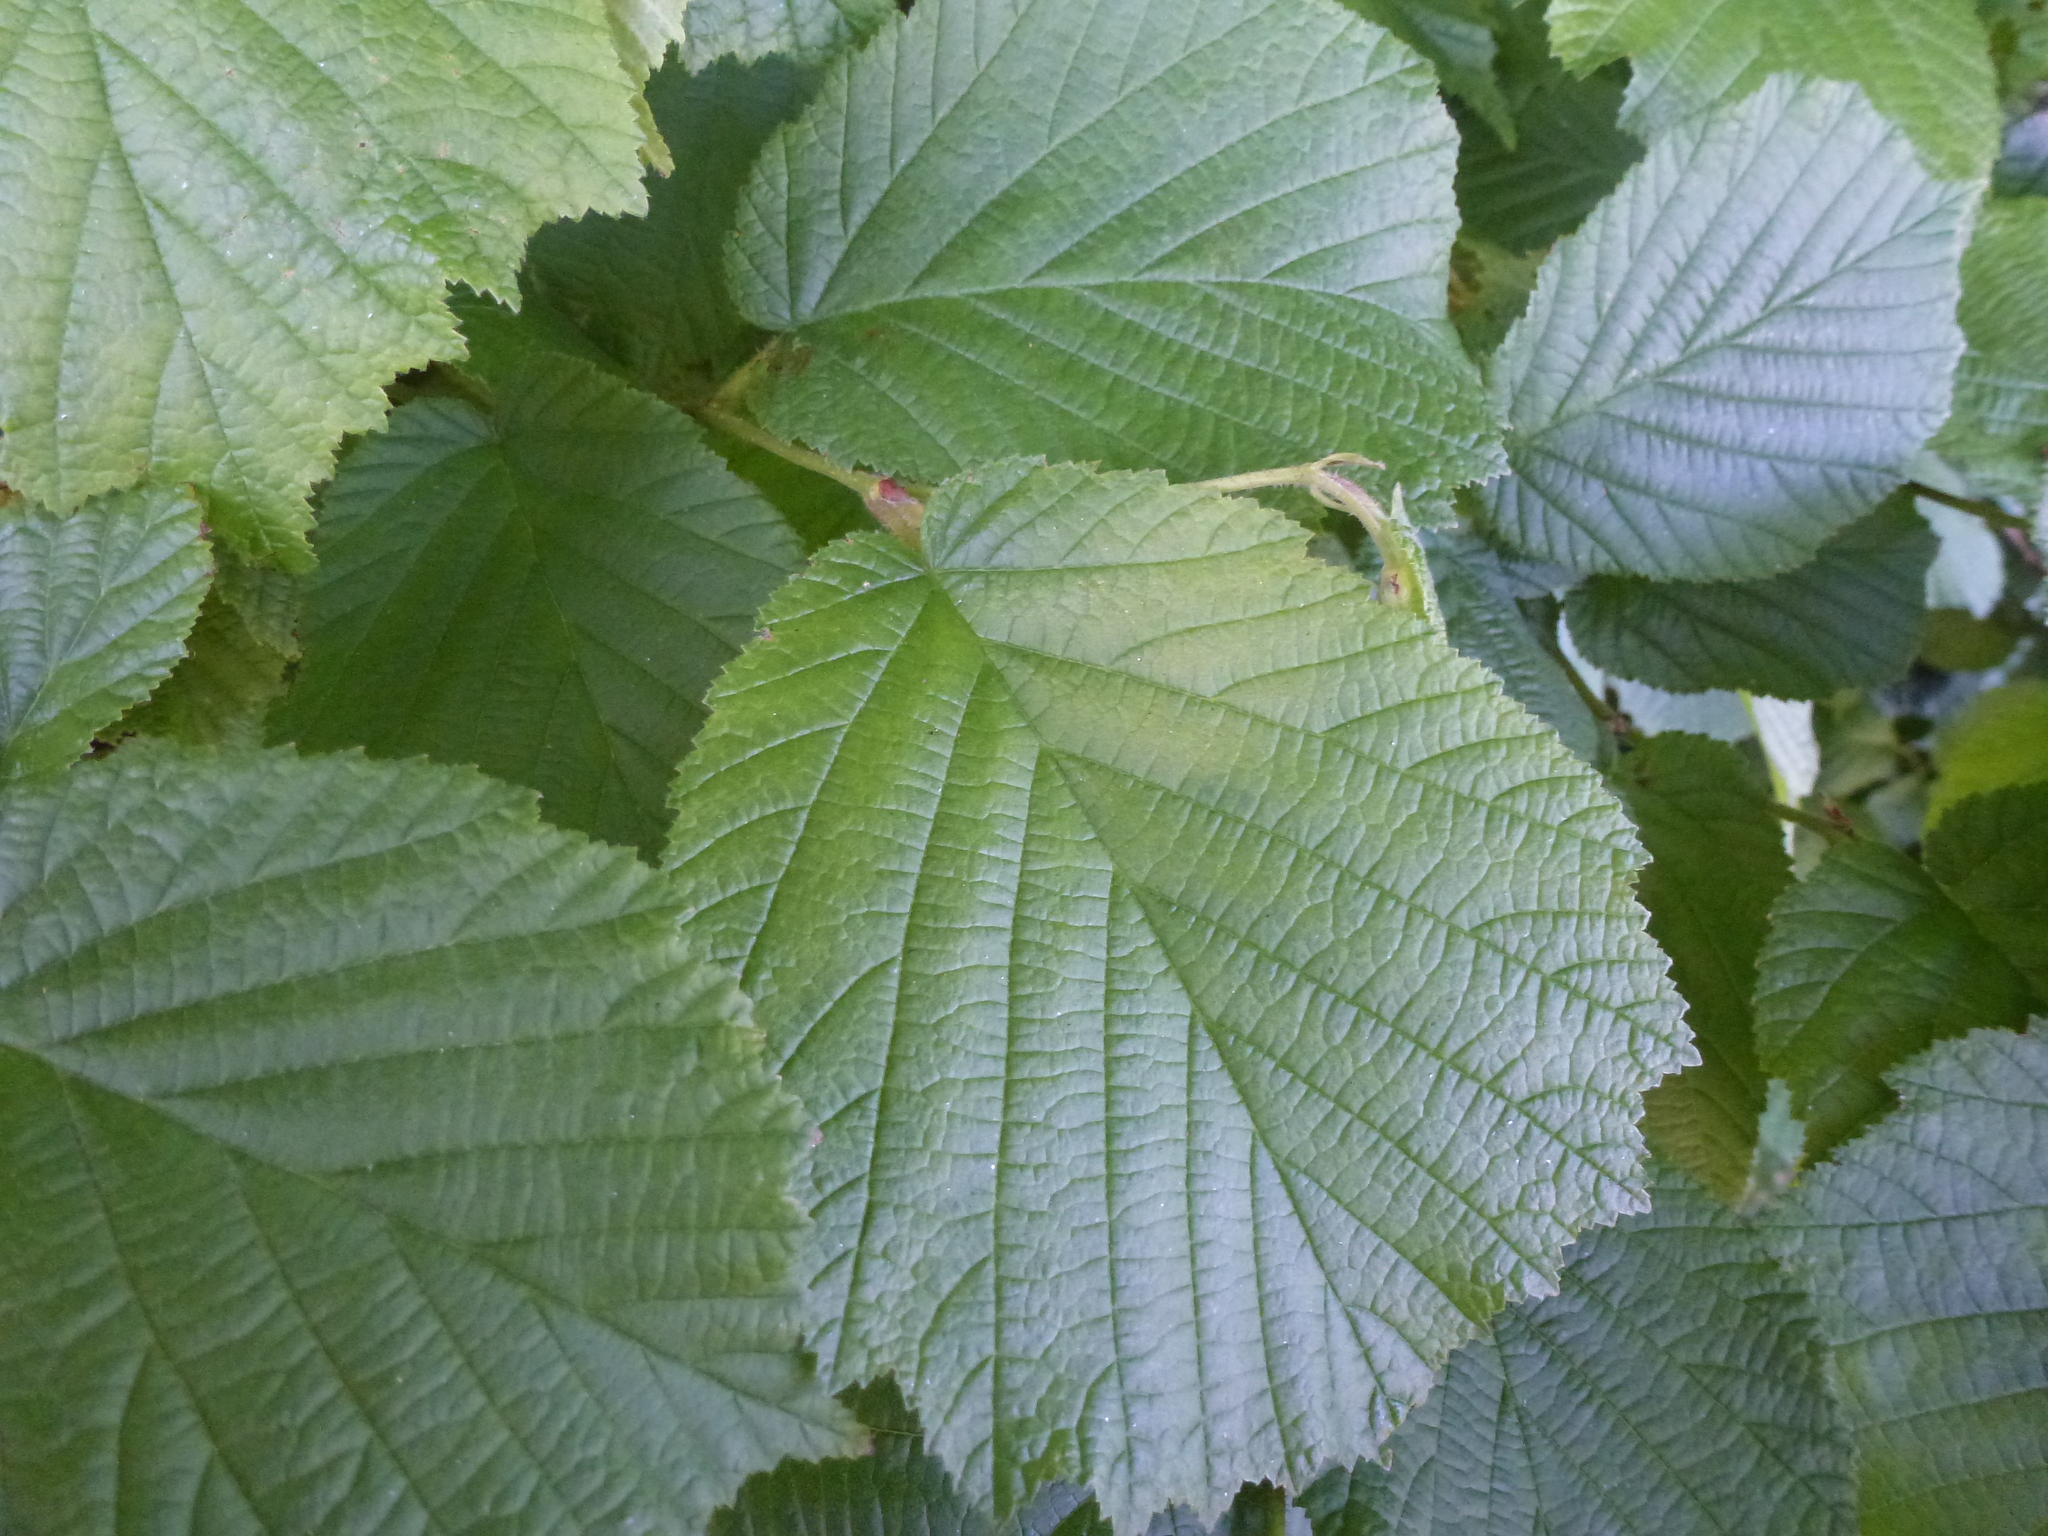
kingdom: Plantae
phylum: Tracheophyta
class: Magnoliopsida
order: Fagales
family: Betulaceae
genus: Corylus
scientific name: Corylus avellana
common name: European hazel
